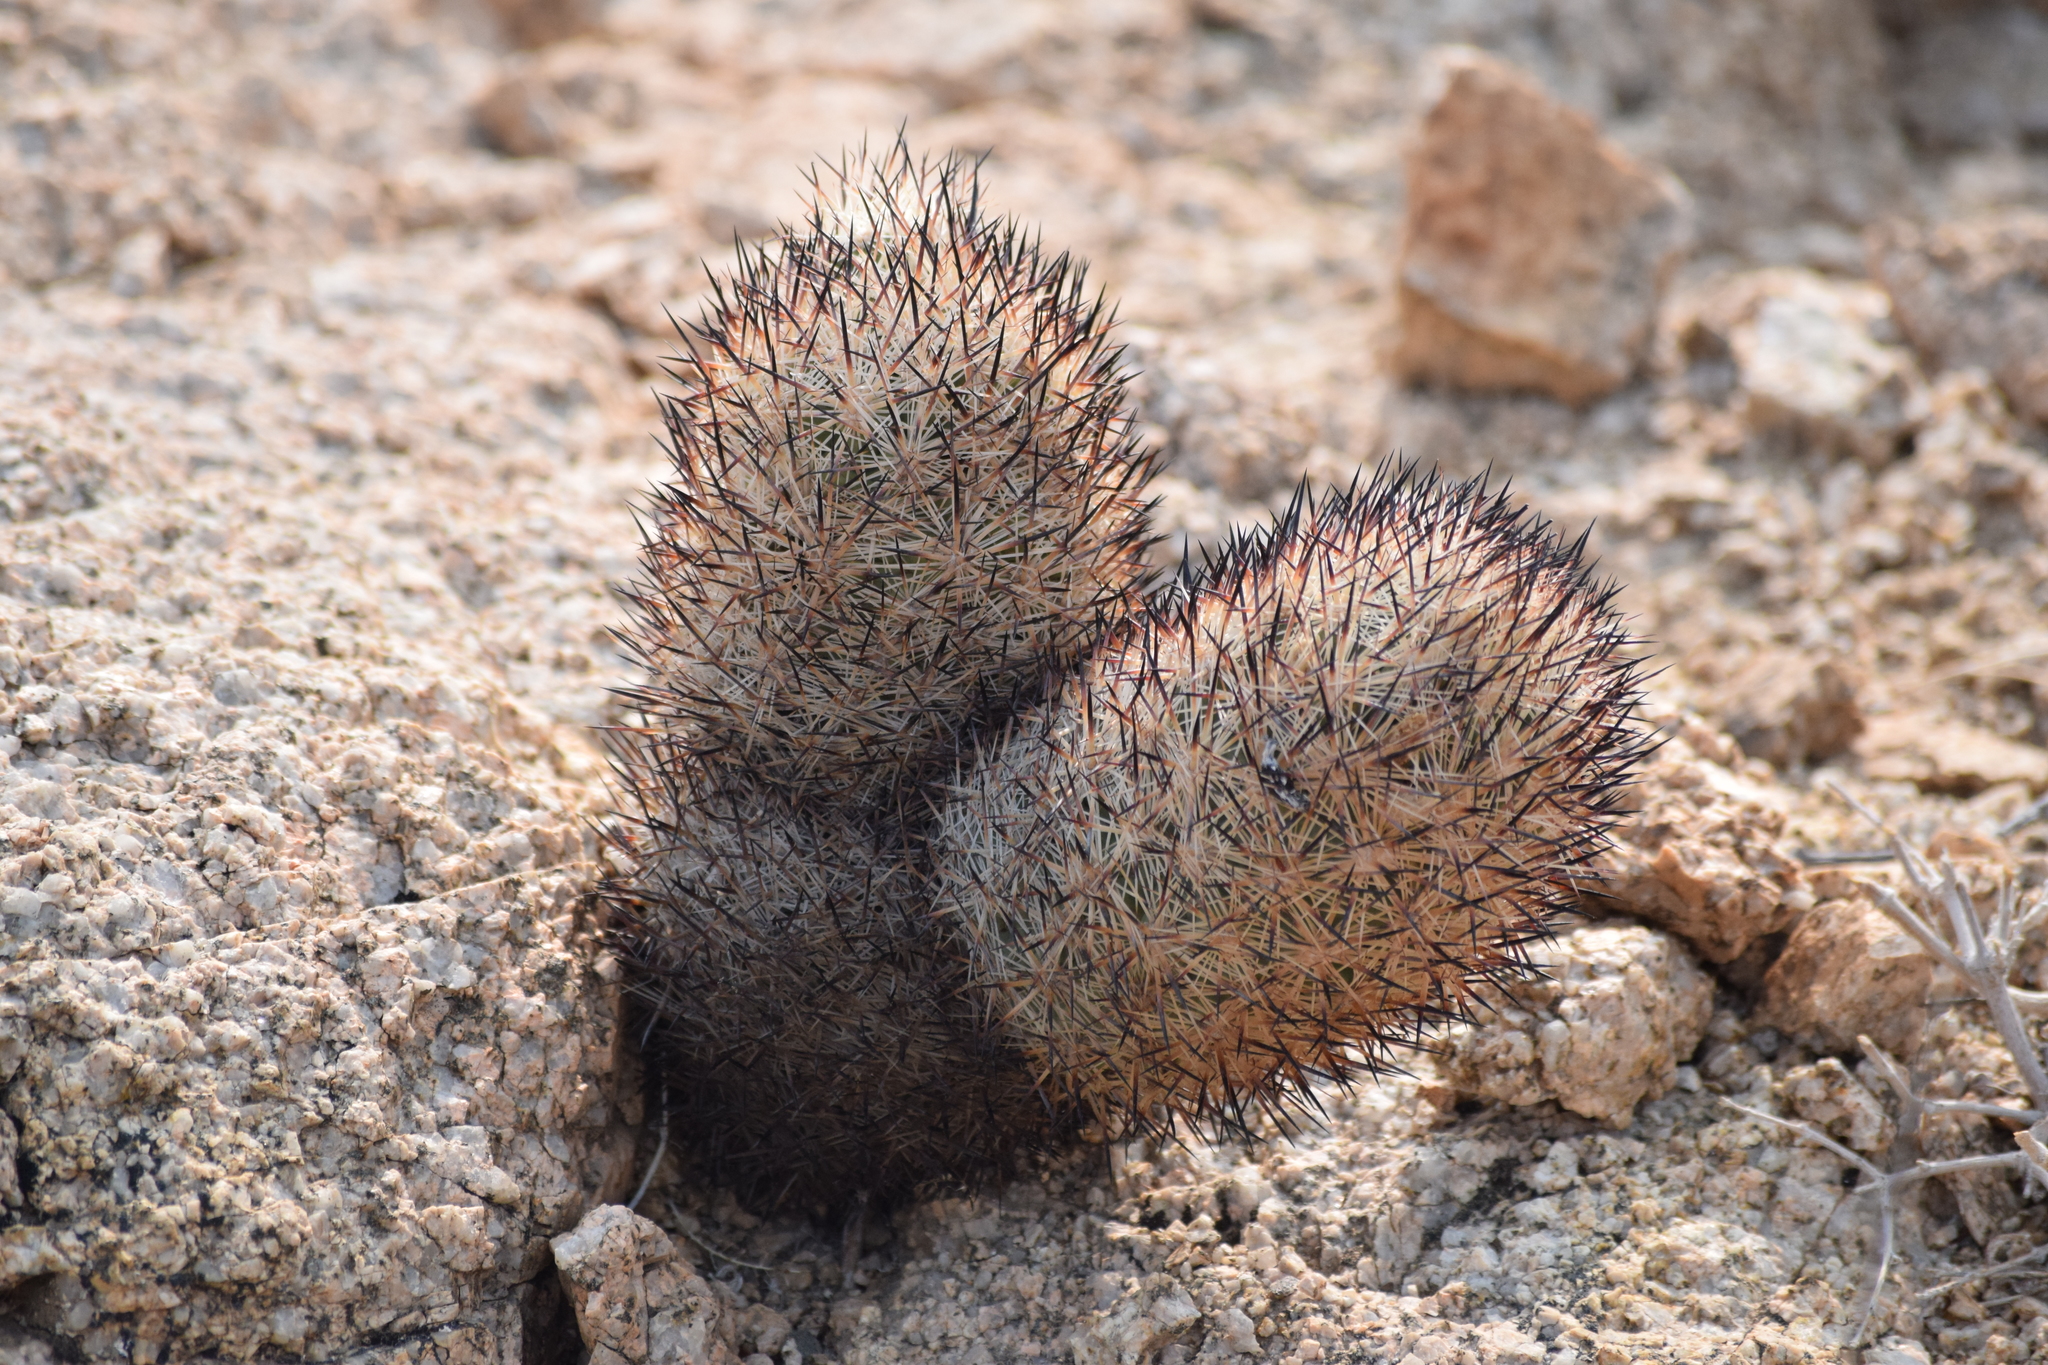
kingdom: Plantae
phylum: Tracheophyta
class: Magnoliopsida
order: Caryophyllales
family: Cactaceae
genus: Pelecyphora
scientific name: Pelecyphora alversonii
